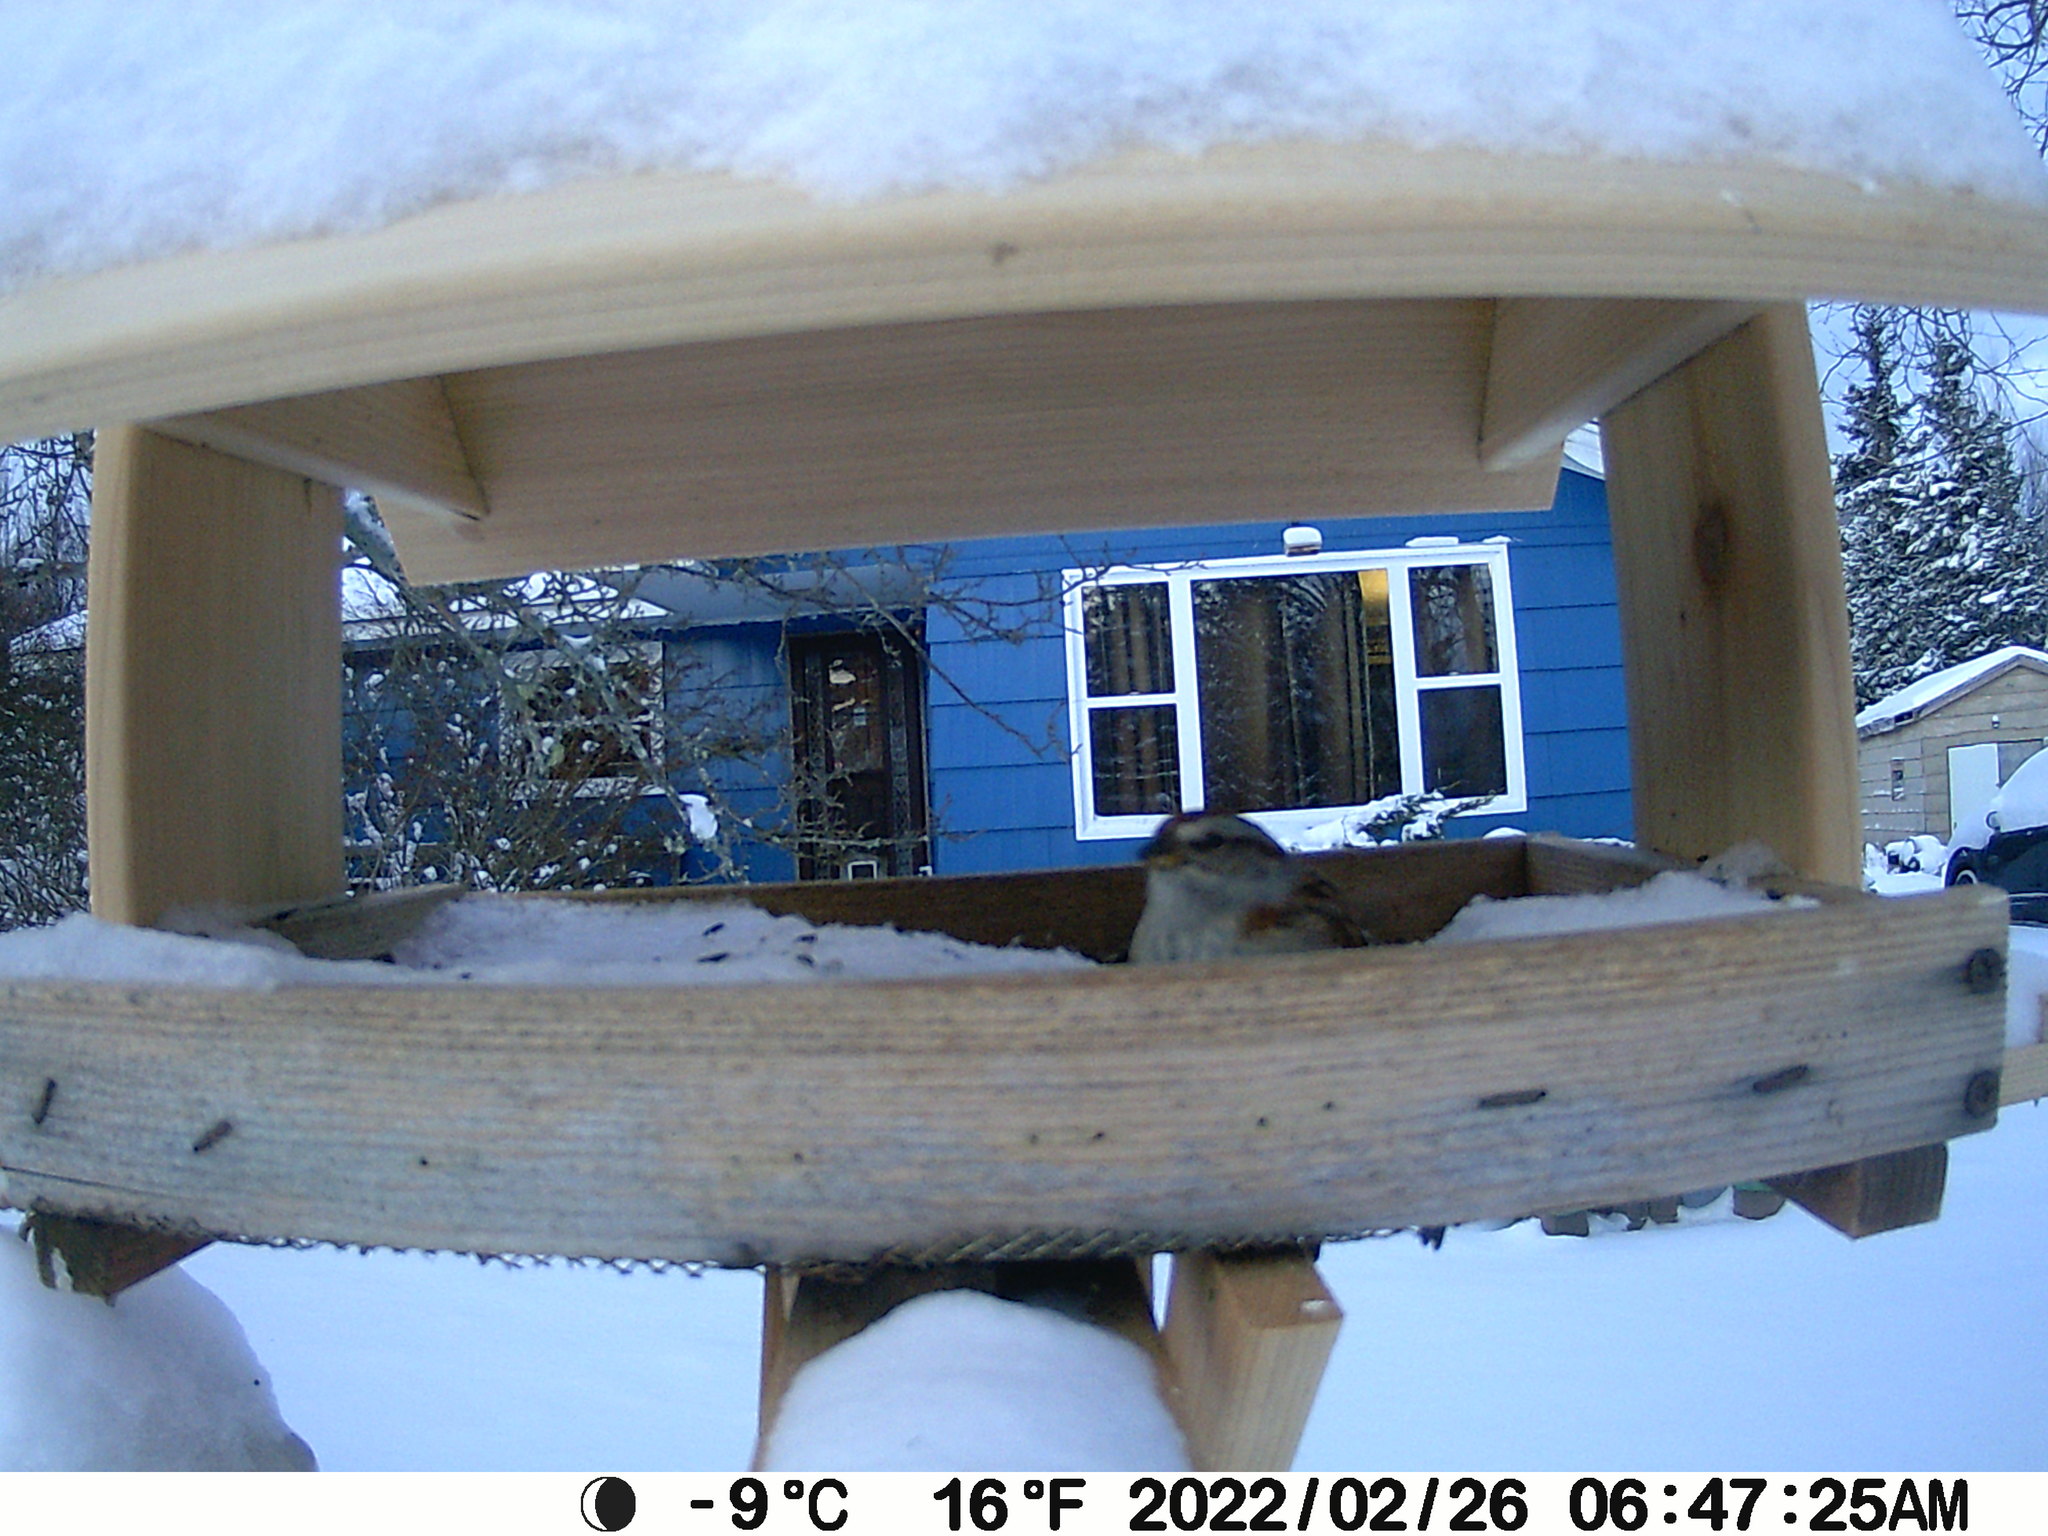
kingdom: Animalia
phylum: Chordata
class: Aves
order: Passeriformes
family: Passerellidae
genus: Spizelloides
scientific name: Spizelloides arborea
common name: American tree sparrow
